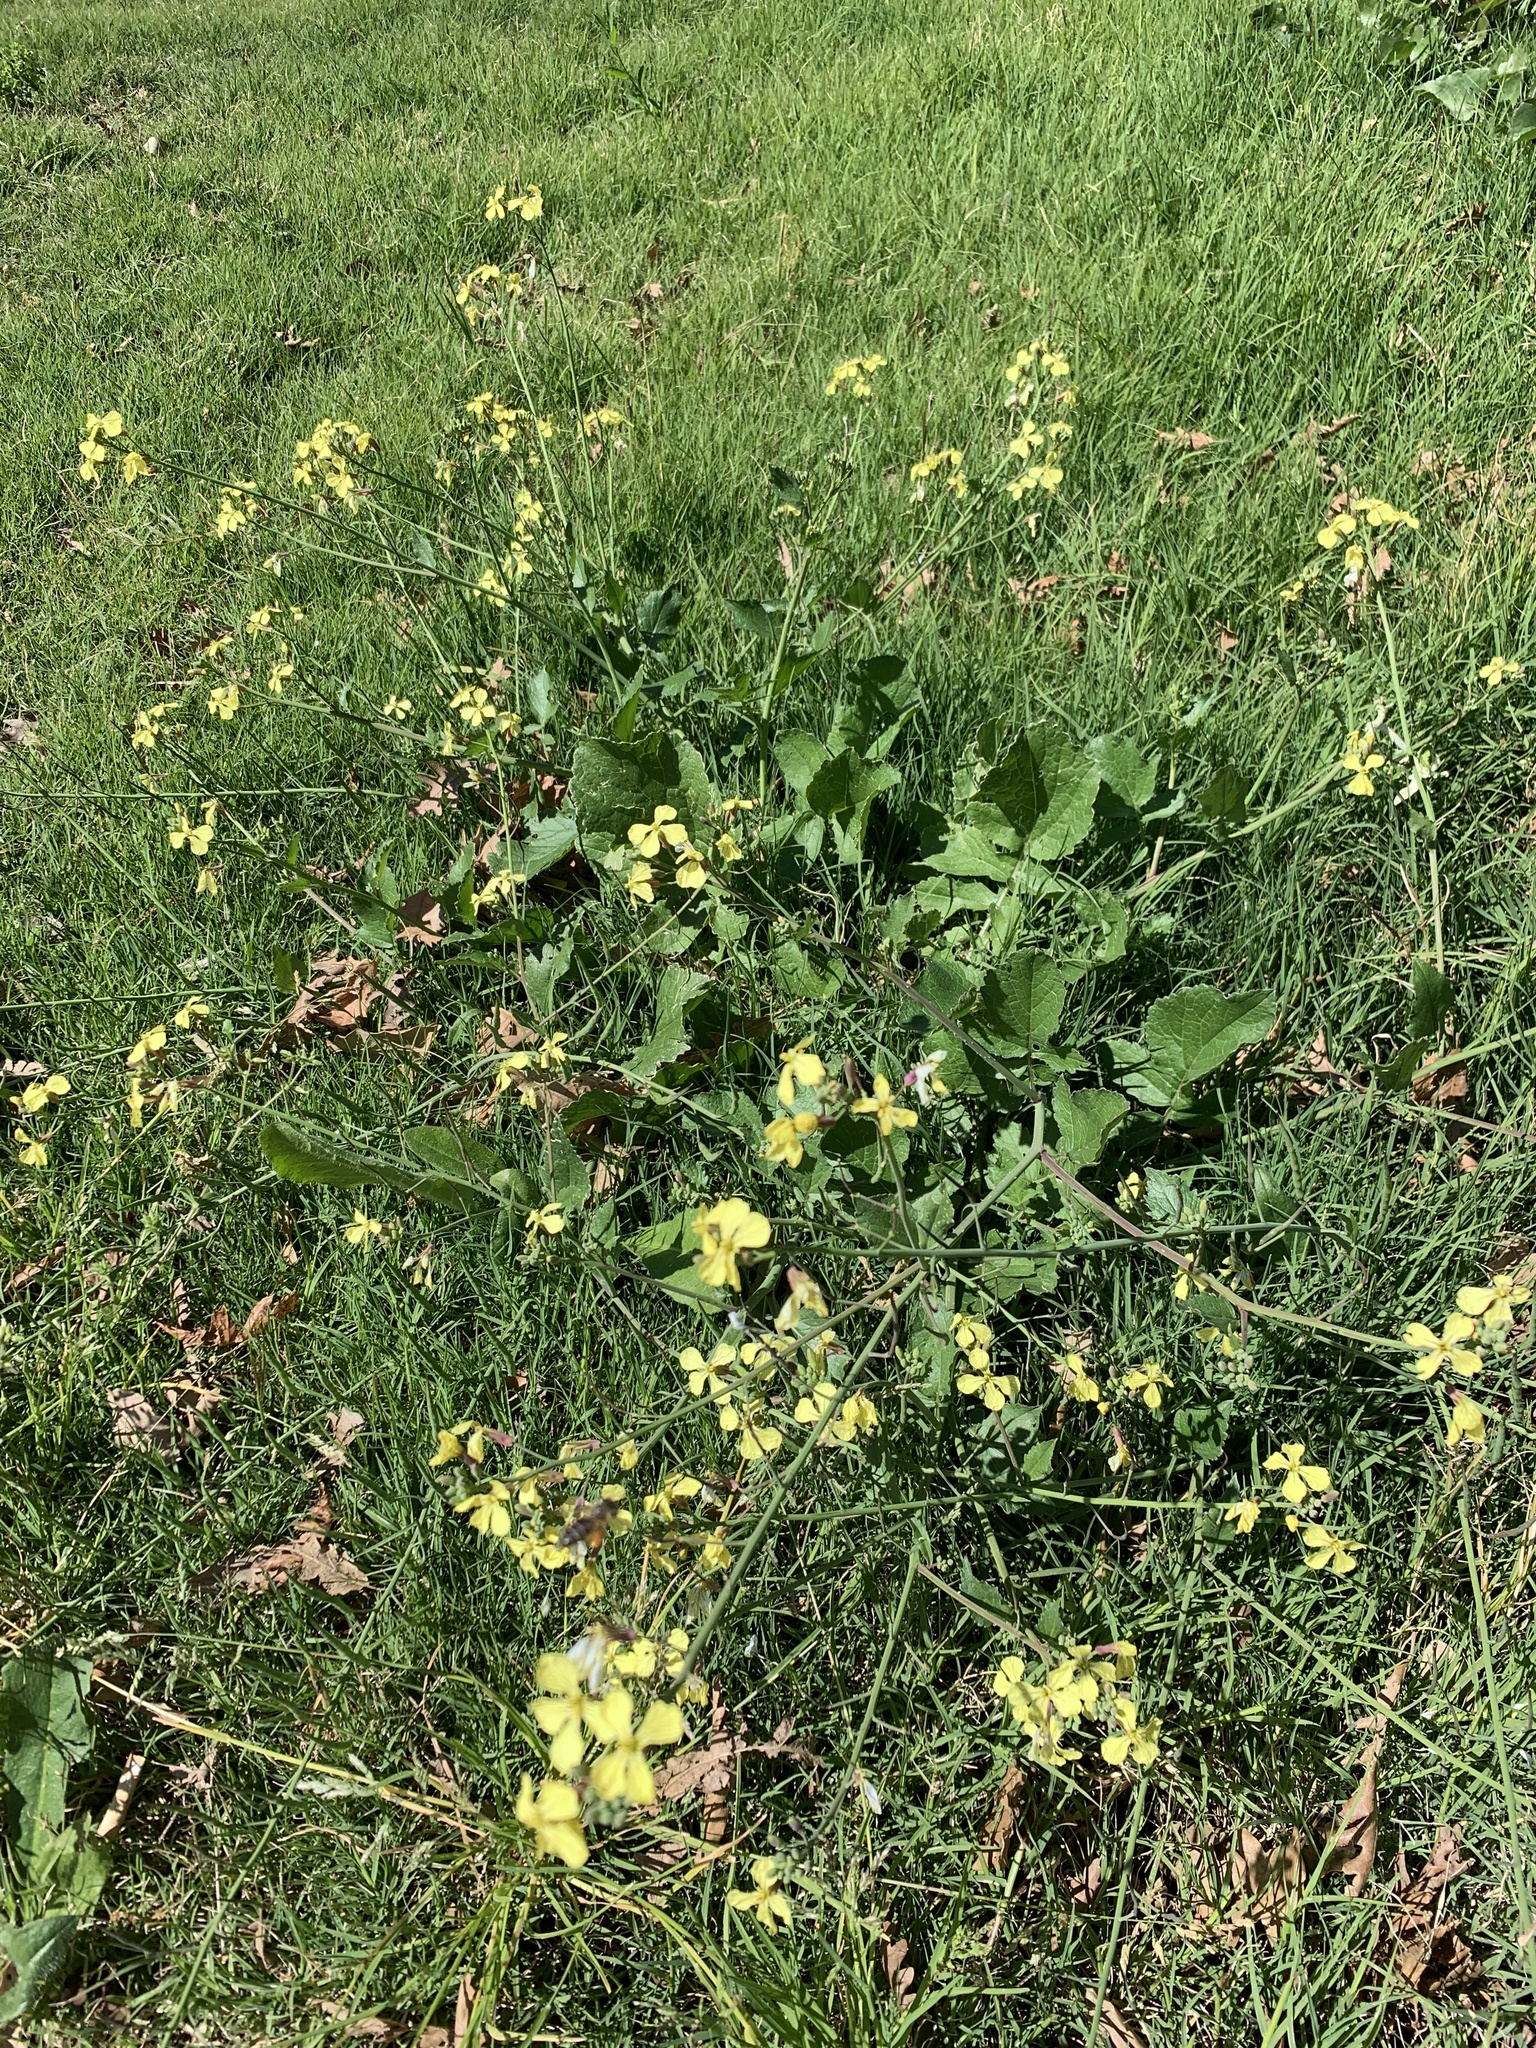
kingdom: Plantae
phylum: Tracheophyta
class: Magnoliopsida
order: Brassicales
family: Brassicaceae
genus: Raphanus
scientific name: Raphanus raphanistrum
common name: Wild radish
